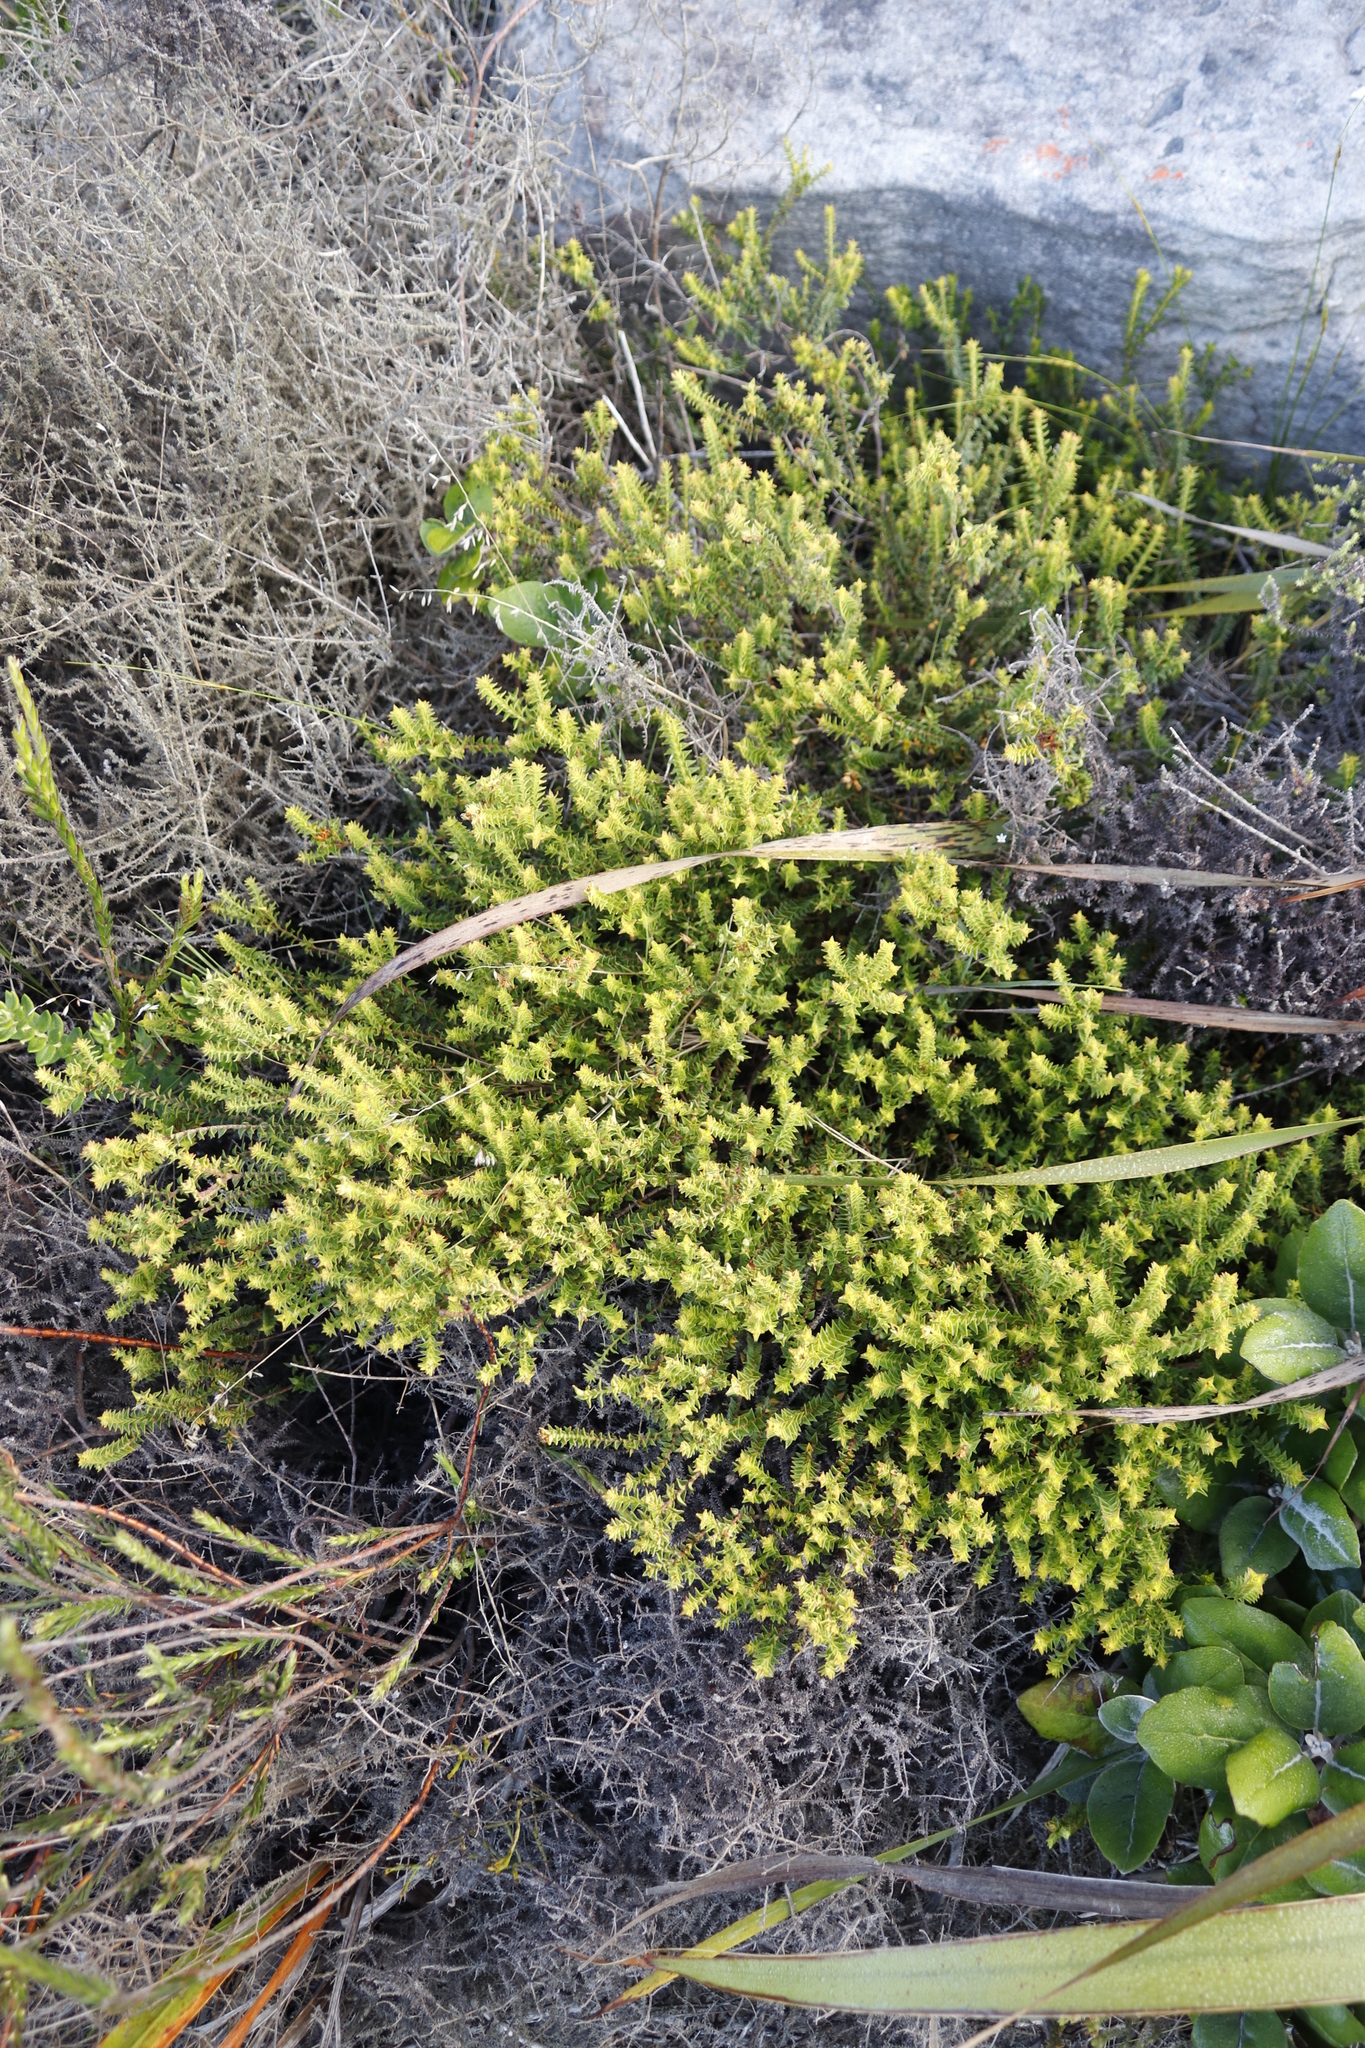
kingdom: Plantae
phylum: Tracheophyta
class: Magnoliopsida
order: Myrtales
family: Penaeaceae
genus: Penaea
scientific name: Penaea mucronata
